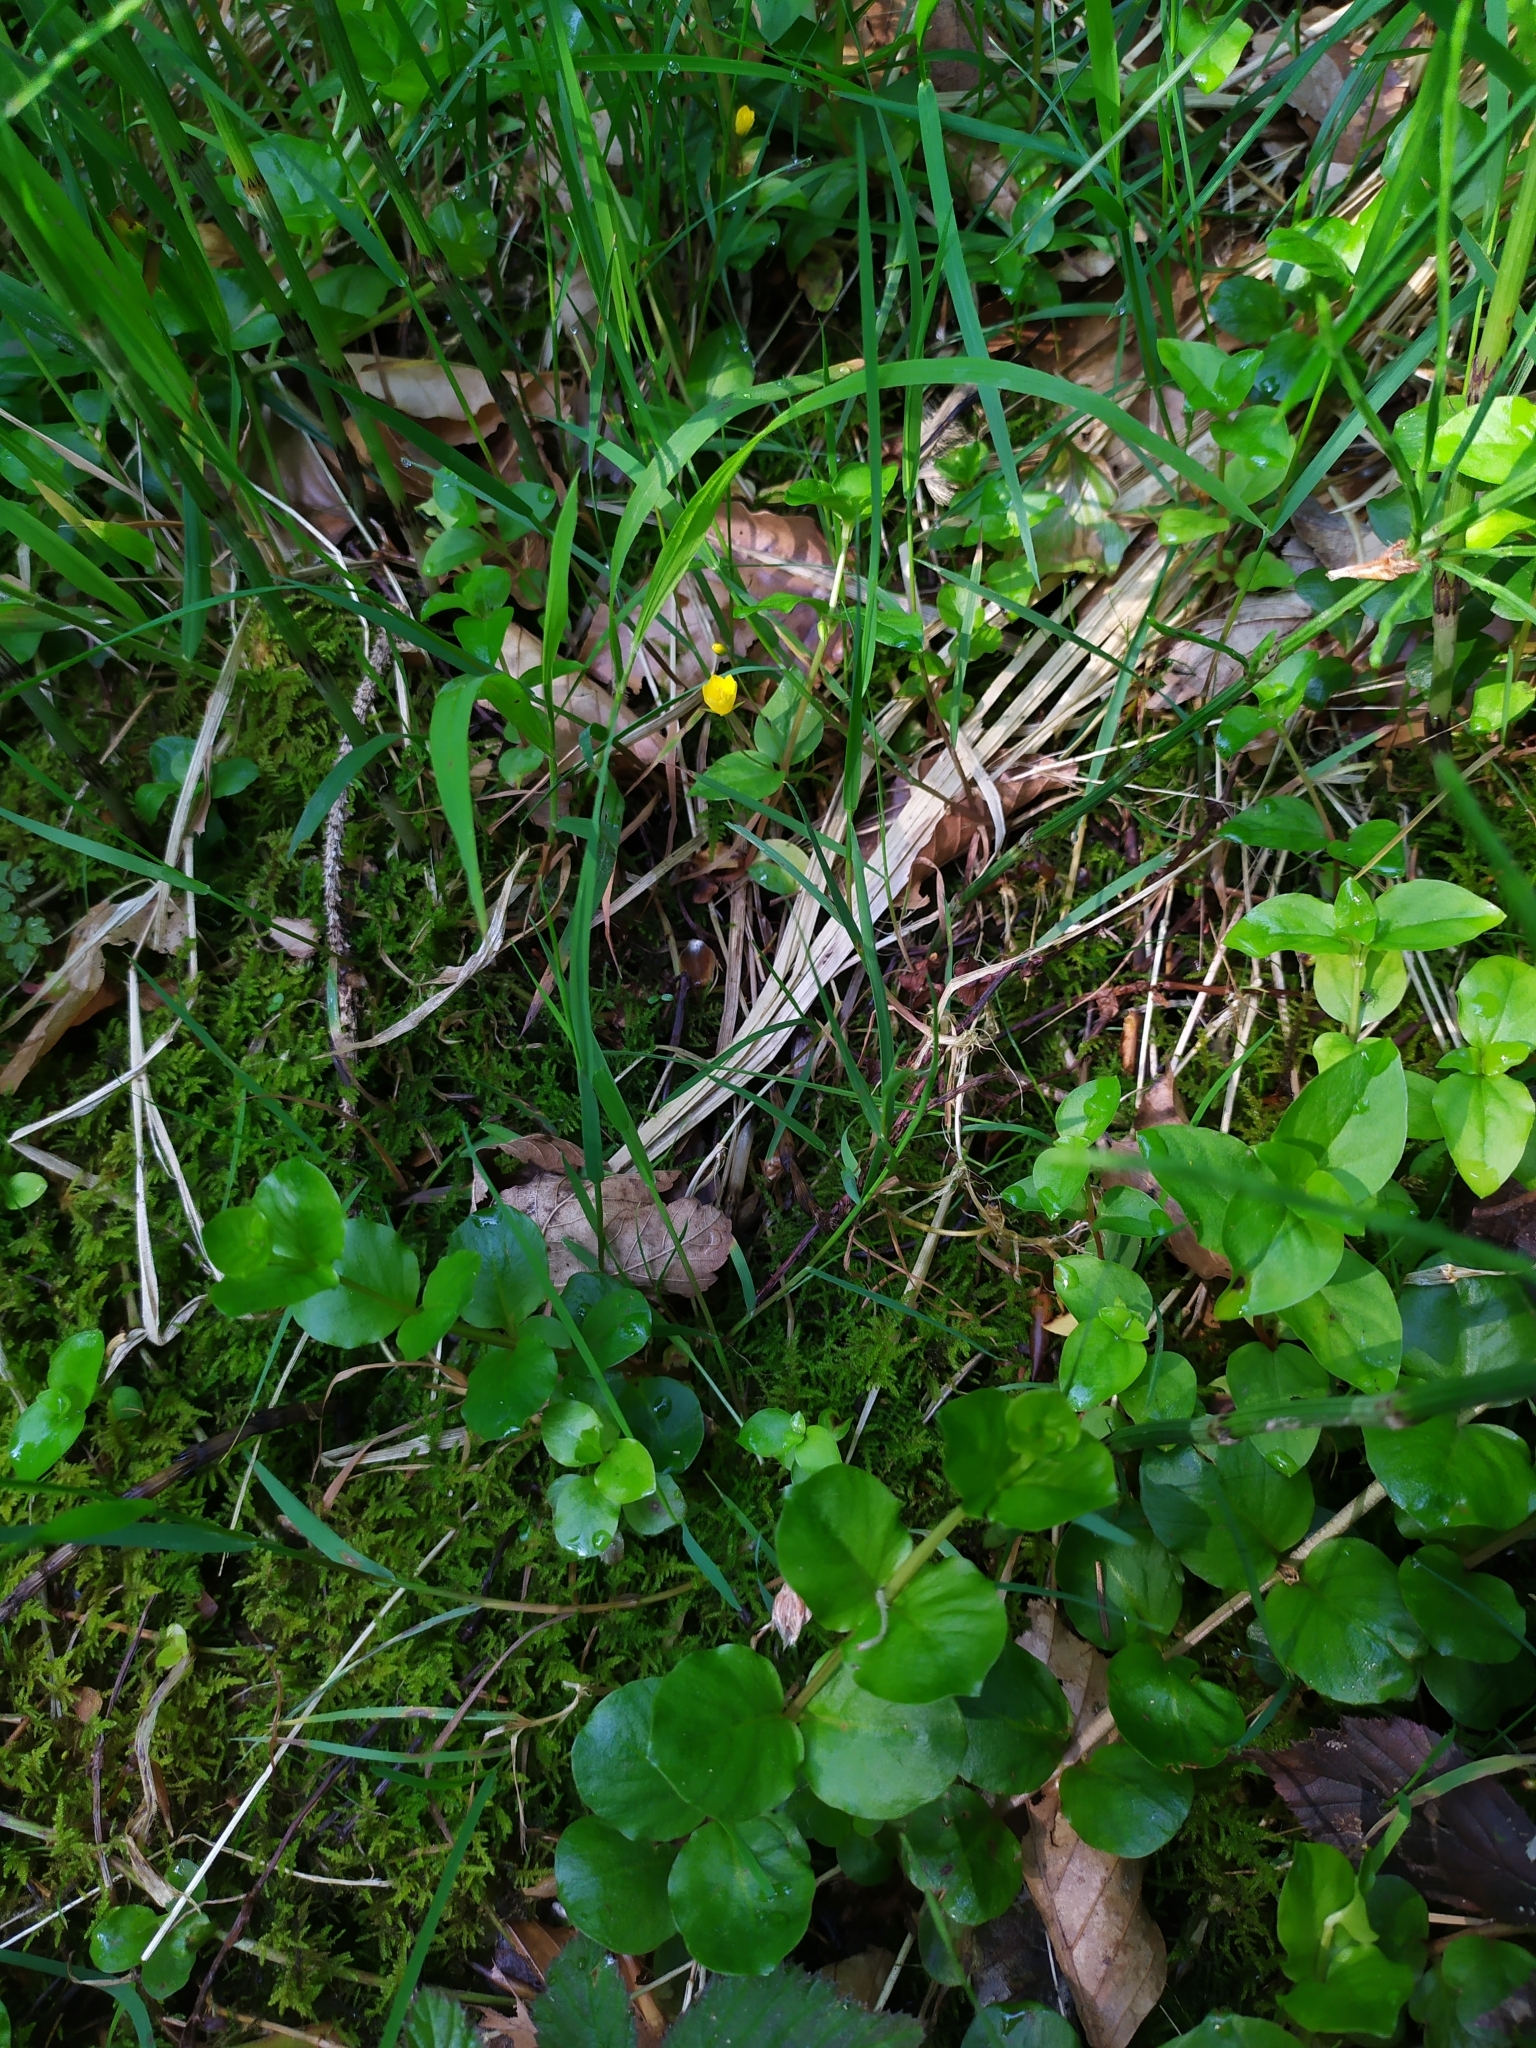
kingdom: Plantae
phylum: Tracheophyta
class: Magnoliopsida
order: Ericales
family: Primulaceae
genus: Lysimachia
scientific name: Lysimachia nemorum
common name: Yellow pimpernel
